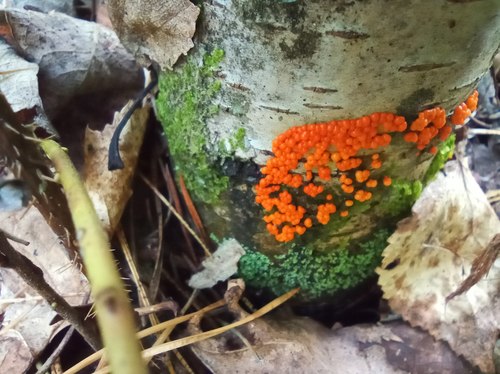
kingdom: Protozoa
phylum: Mycetozoa
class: Myxomycetes
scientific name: Myxomycetes
